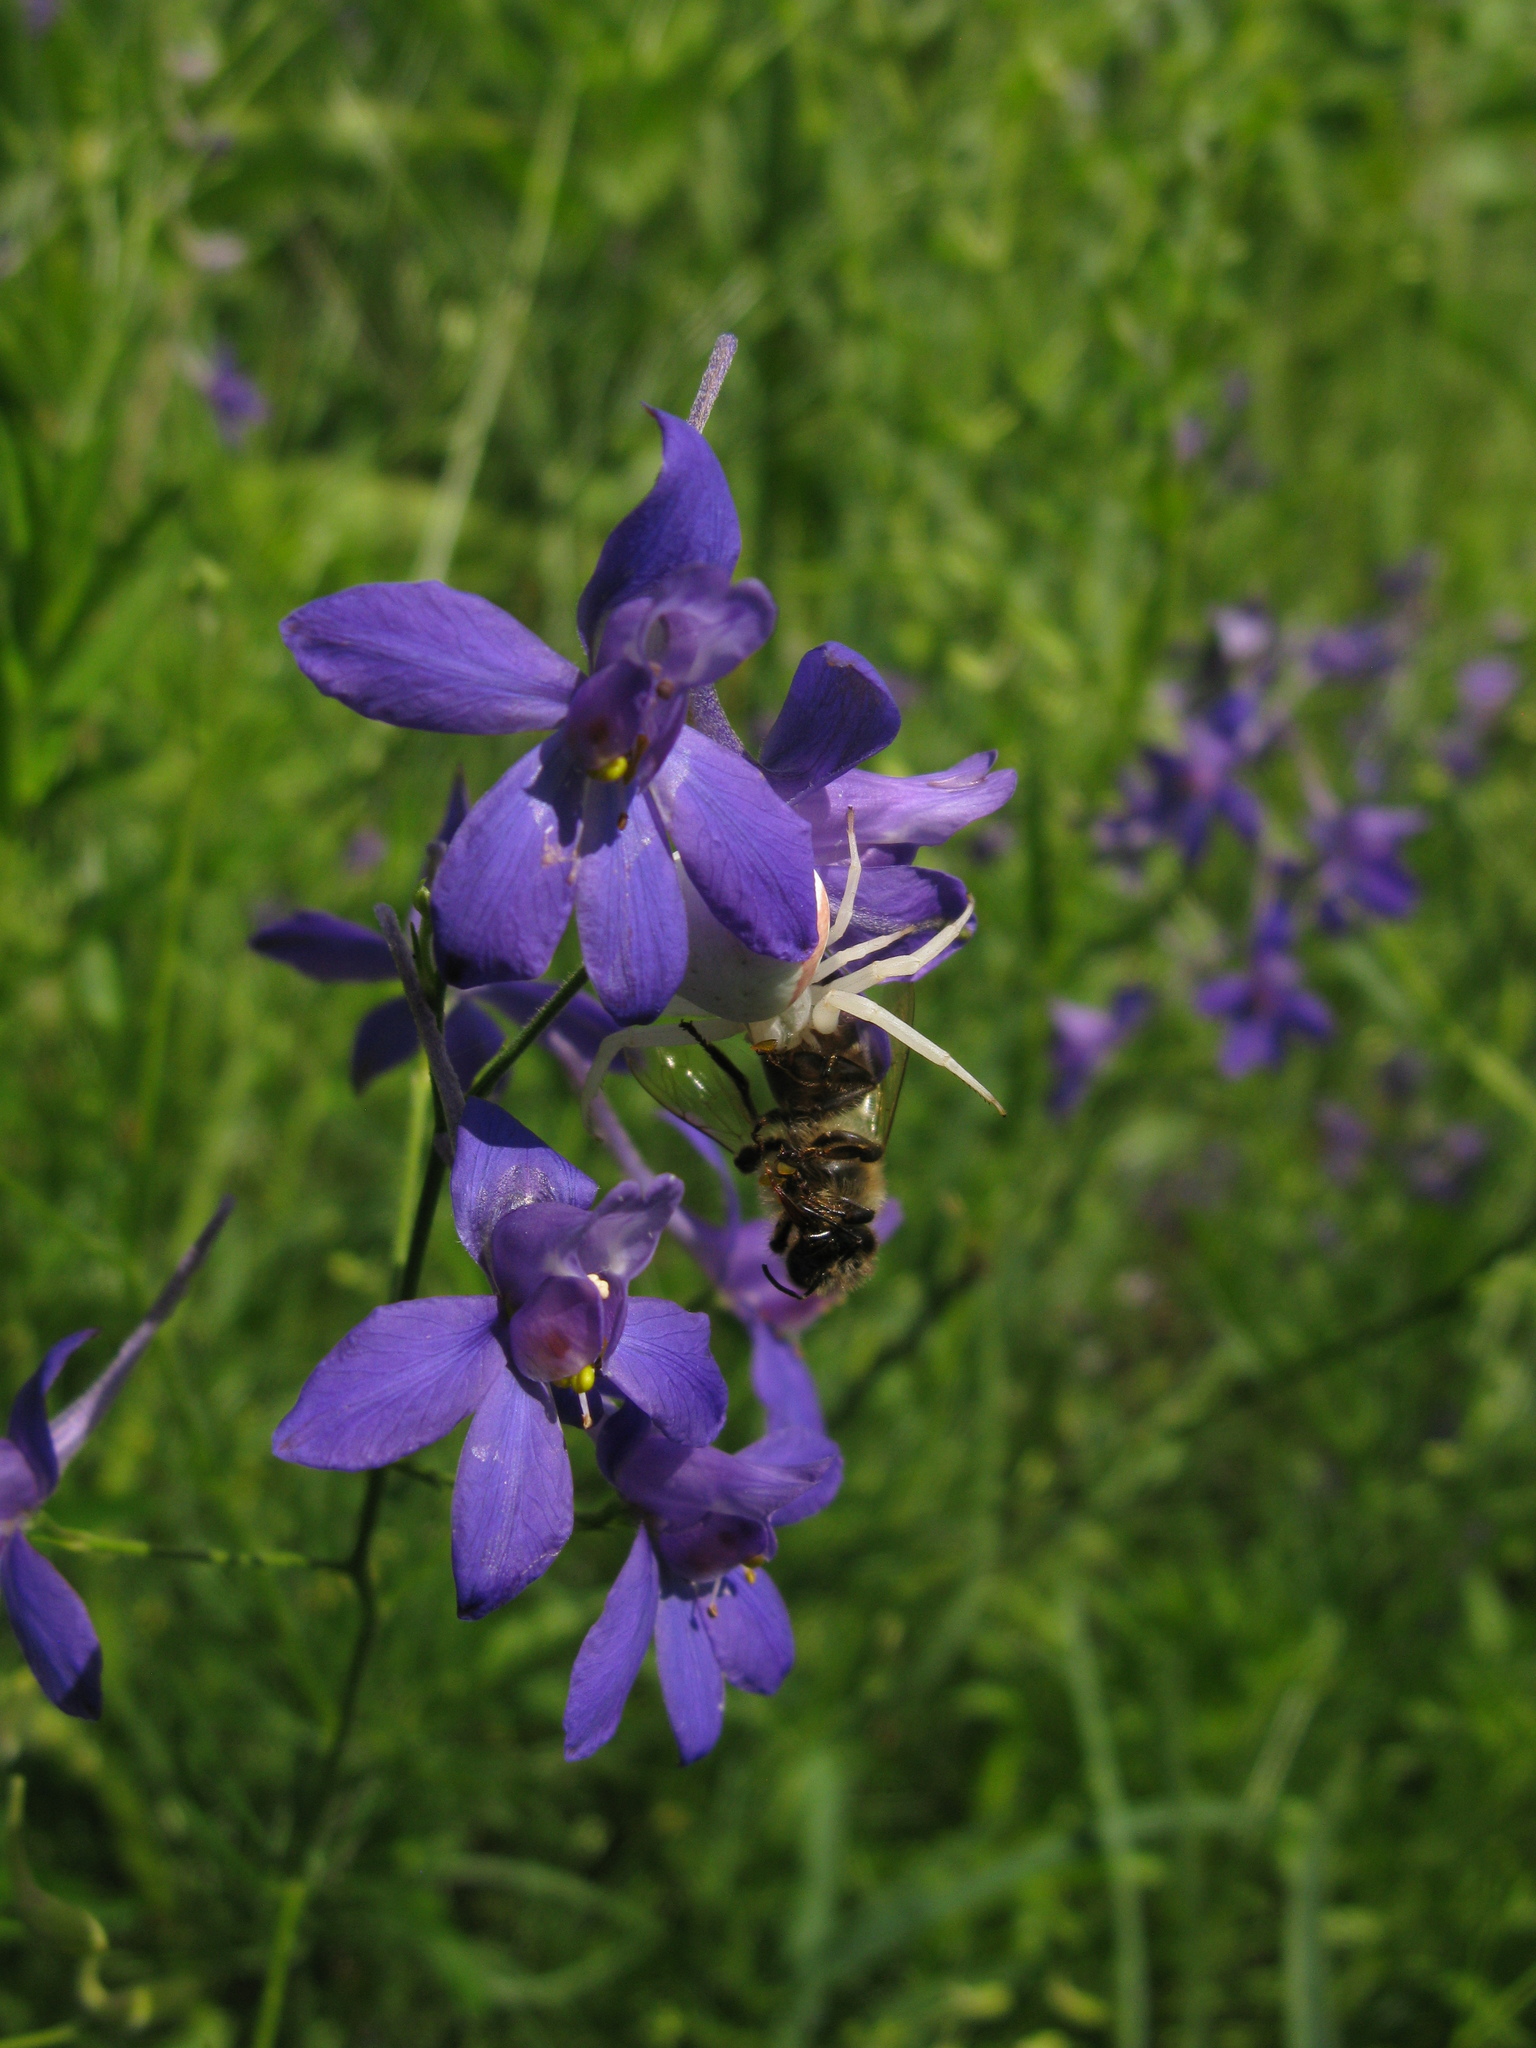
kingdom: Animalia
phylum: Arthropoda
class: Arachnida
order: Araneae
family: Thomisidae
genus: Misumena
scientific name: Misumena vatia
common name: Goldenrod crab spider
